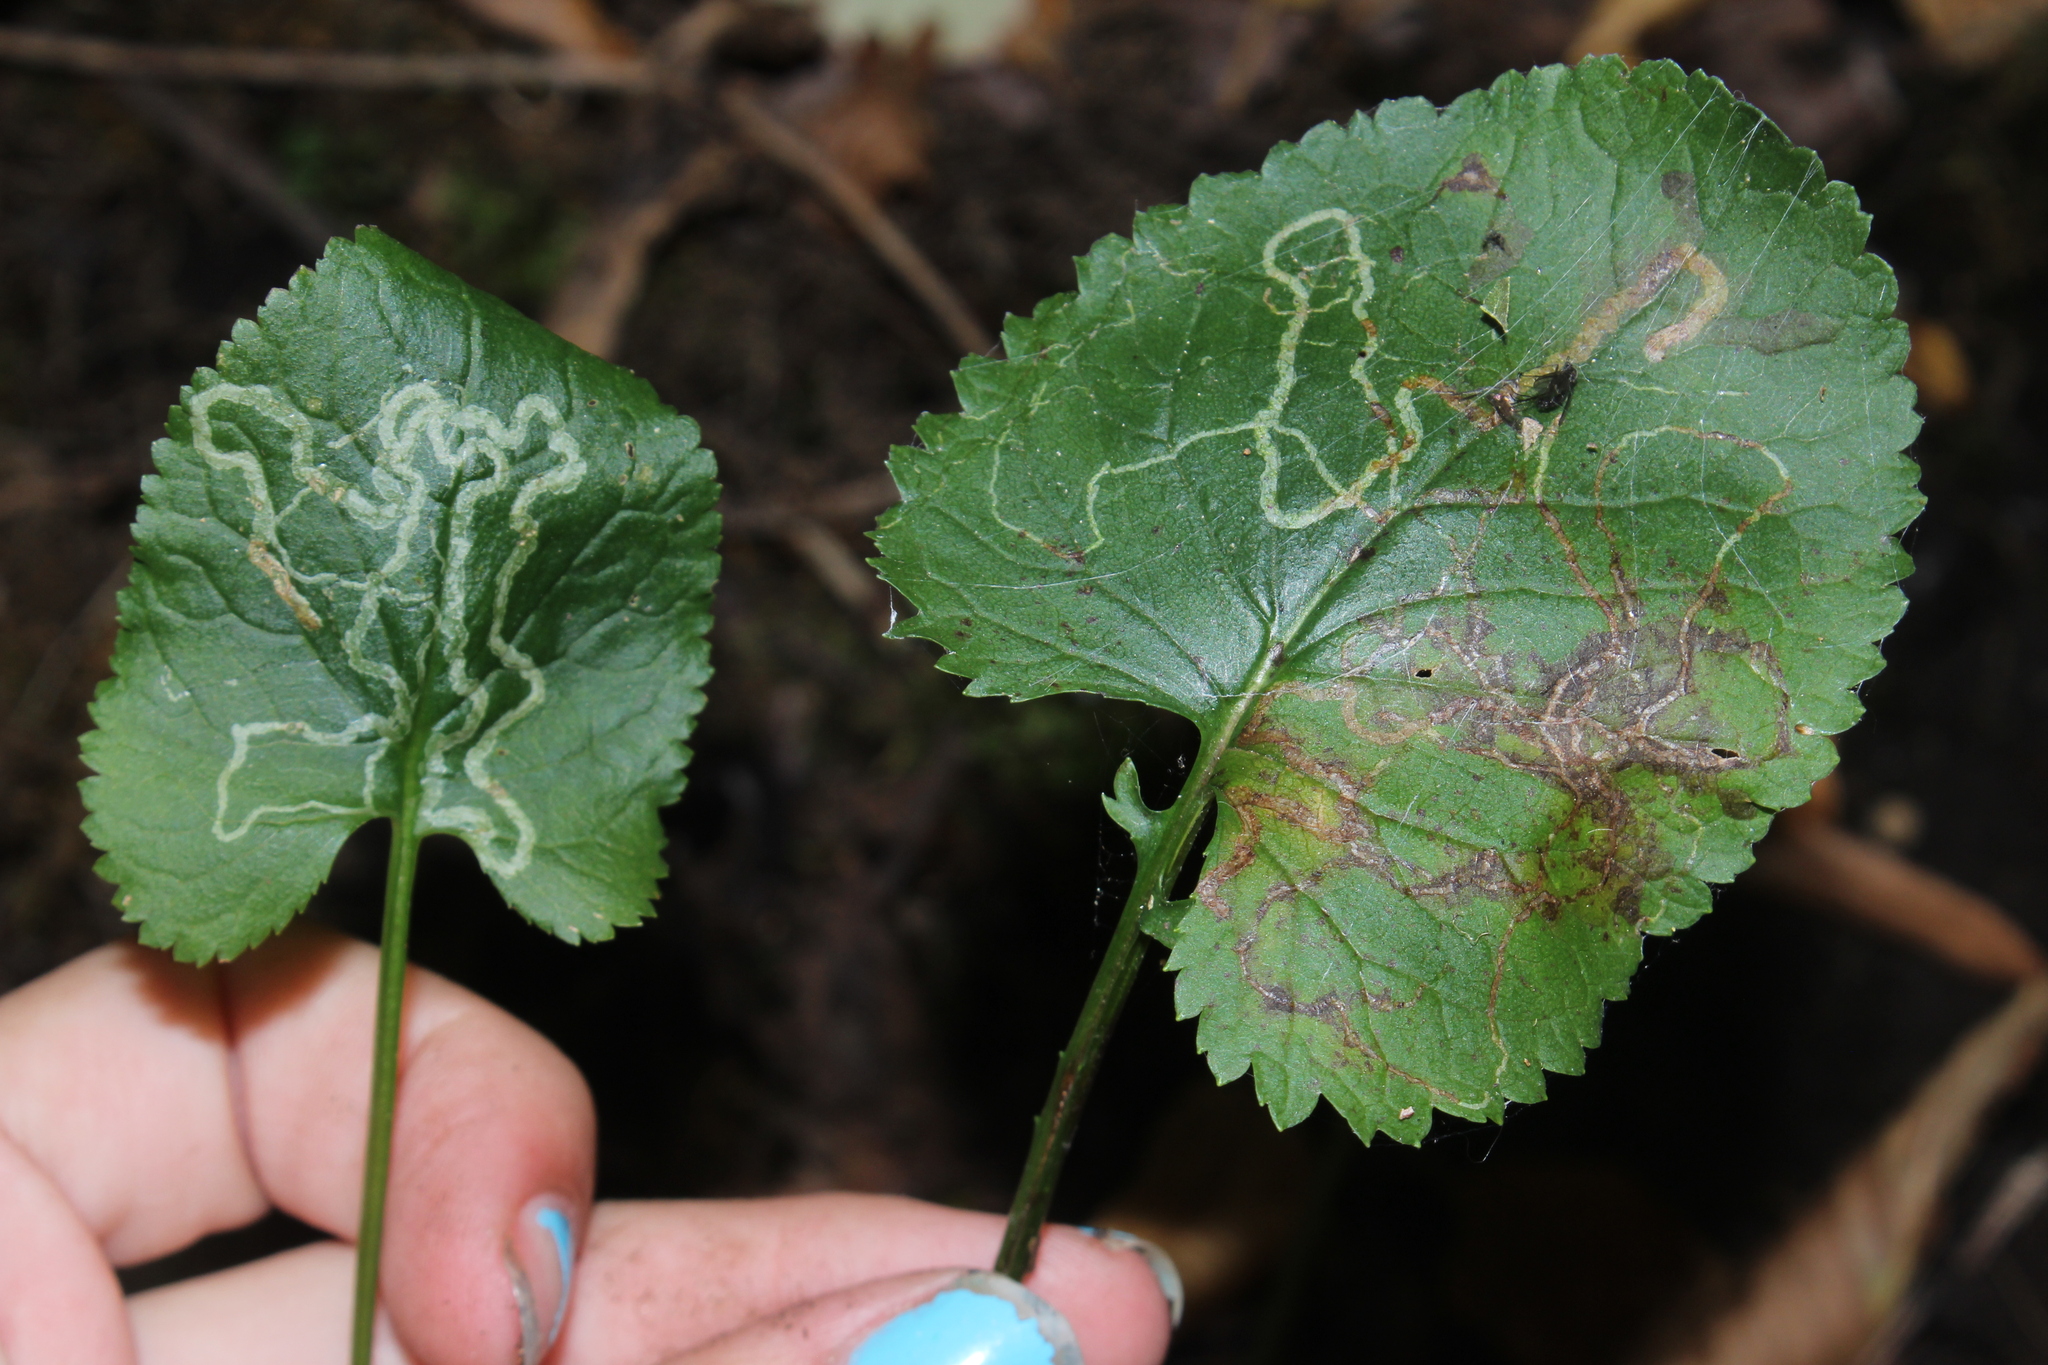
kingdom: Animalia
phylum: Arthropoda
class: Insecta
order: Lepidoptera
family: Gracillariidae
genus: Phyllocnistis
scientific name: Phyllocnistis insignis
